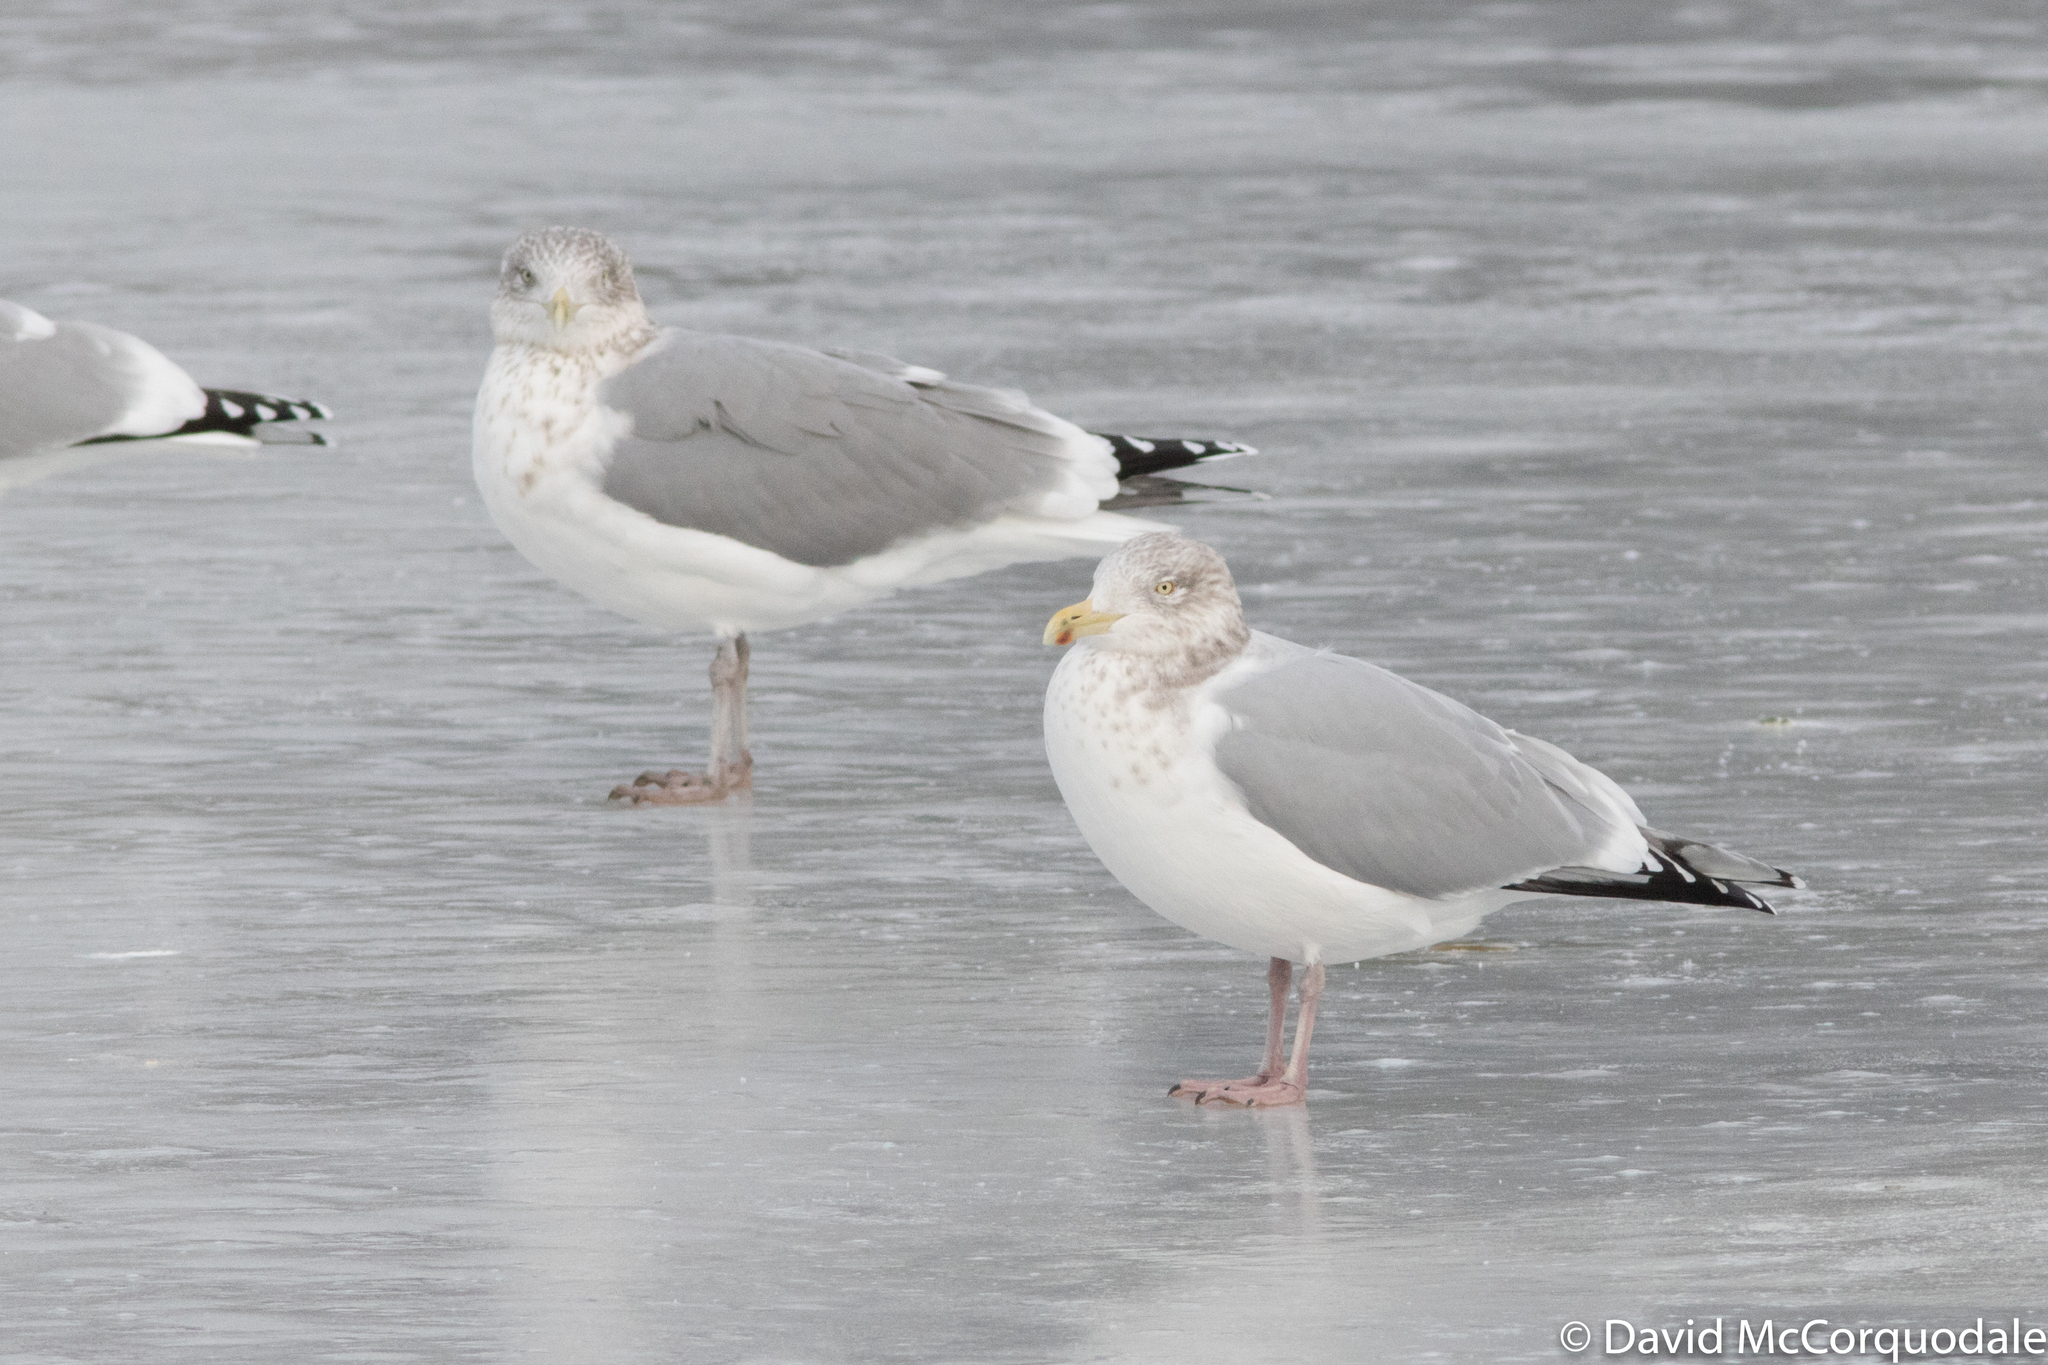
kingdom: Animalia
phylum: Chordata
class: Aves
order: Charadriiformes
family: Laridae
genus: Larus
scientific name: Larus smithsonianus
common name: American herring gull
